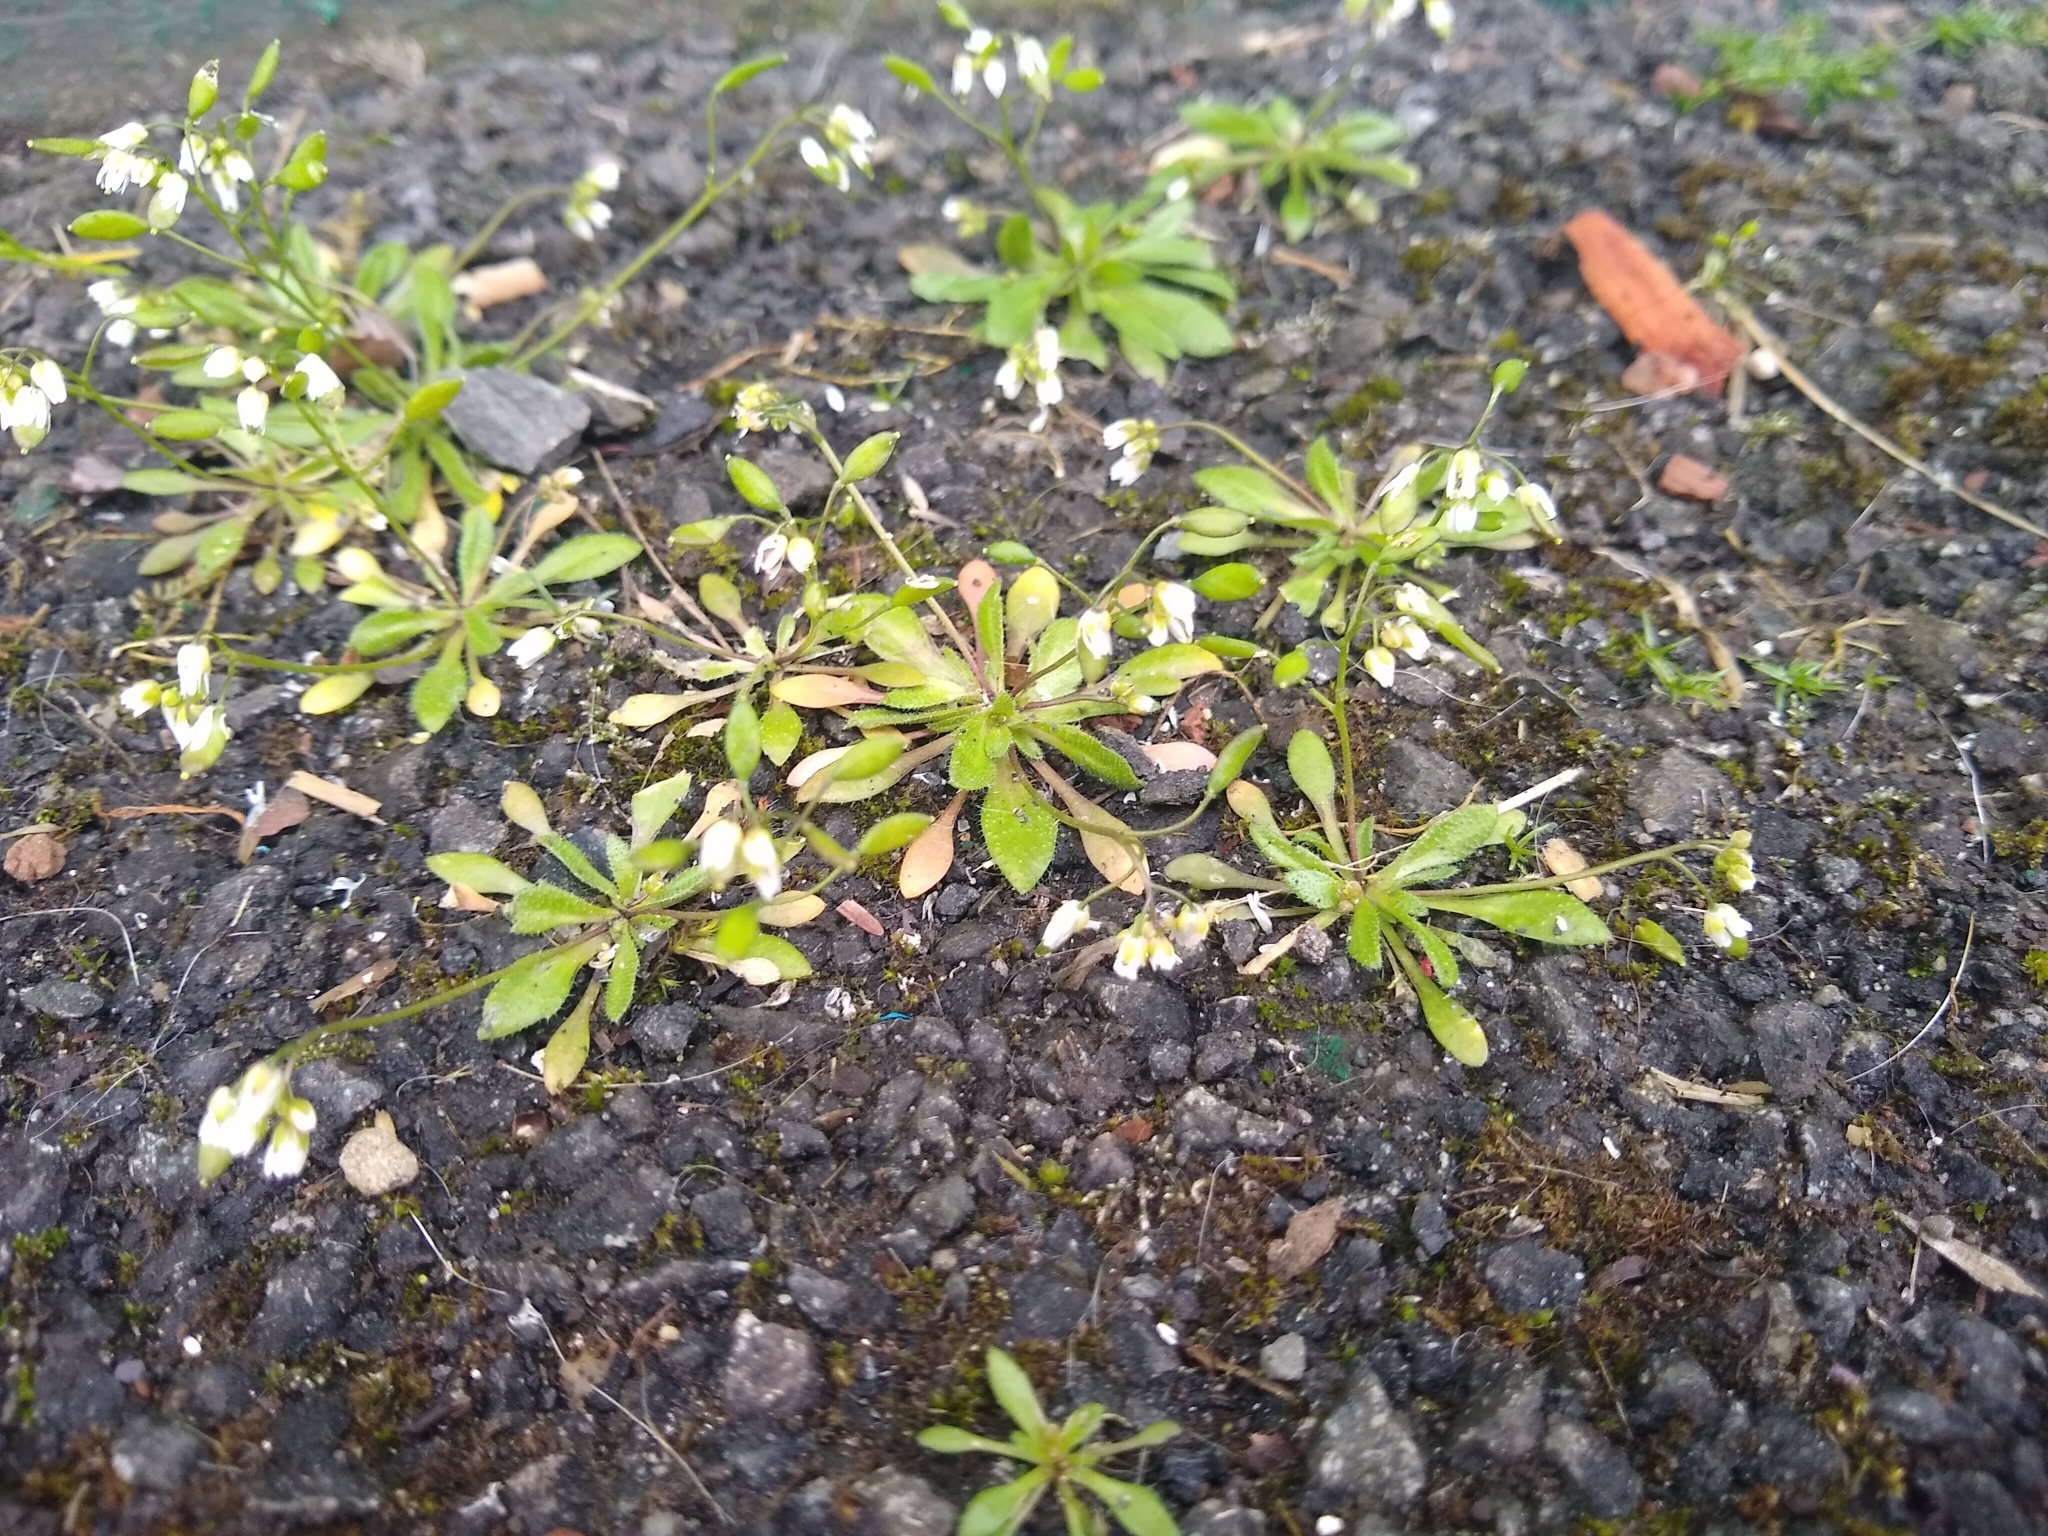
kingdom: Plantae
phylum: Tracheophyta
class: Magnoliopsida
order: Brassicales
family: Brassicaceae
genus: Draba
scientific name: Draba verna
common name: Spring draba
